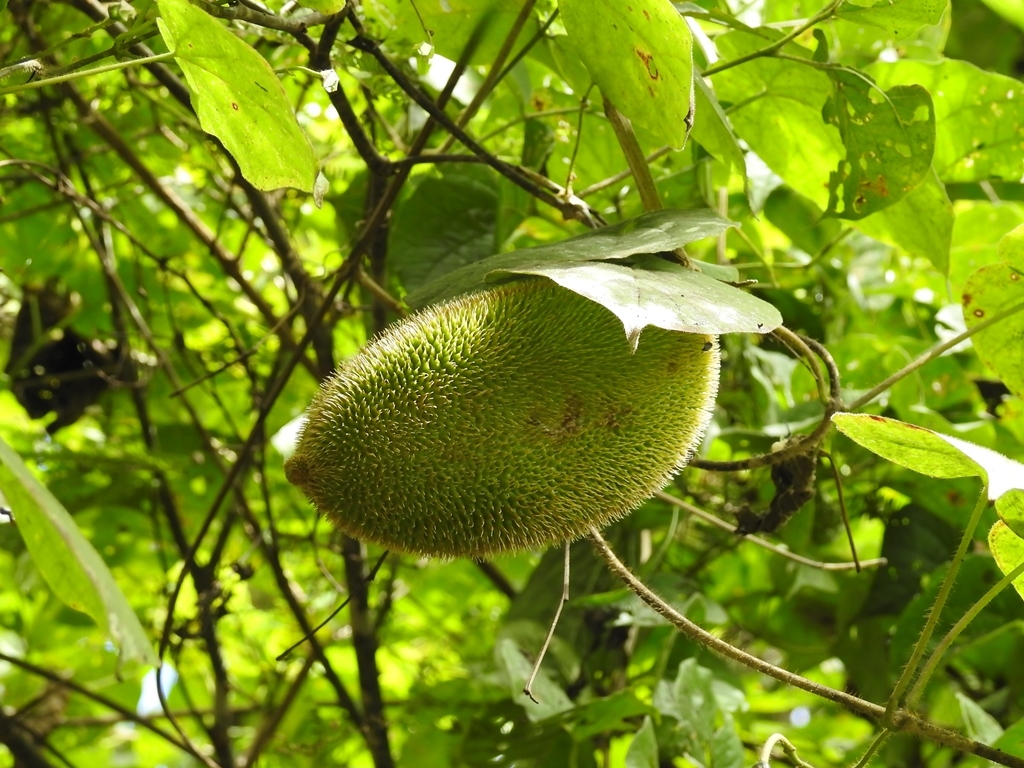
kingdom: Plantae
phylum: Tracheophyta
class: Magnoliopsida
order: Lamiales
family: Bignoniaceae
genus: Amphilophium
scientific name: Amphilophium crucigerum
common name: Monkey comb
